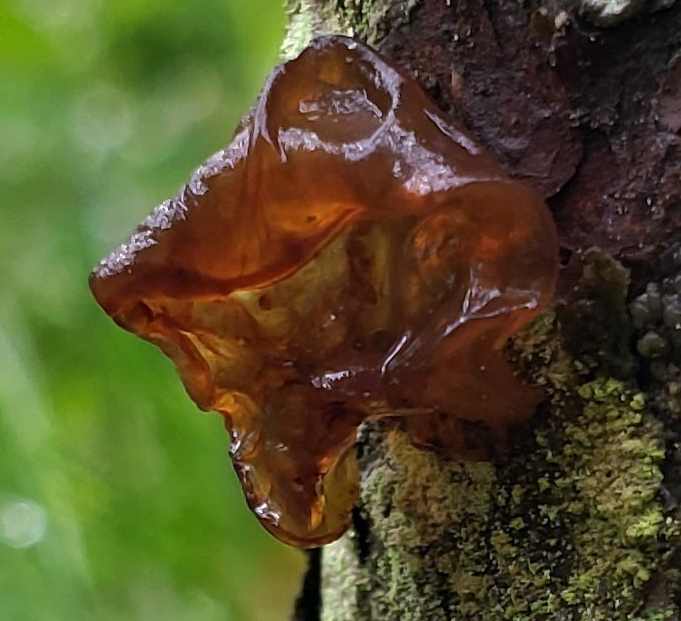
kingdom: Fungi
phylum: Basidiomycota
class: Agaricomycetes
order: Auriculariales
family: Auriculariaceae
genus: Exidia
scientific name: Exidia
